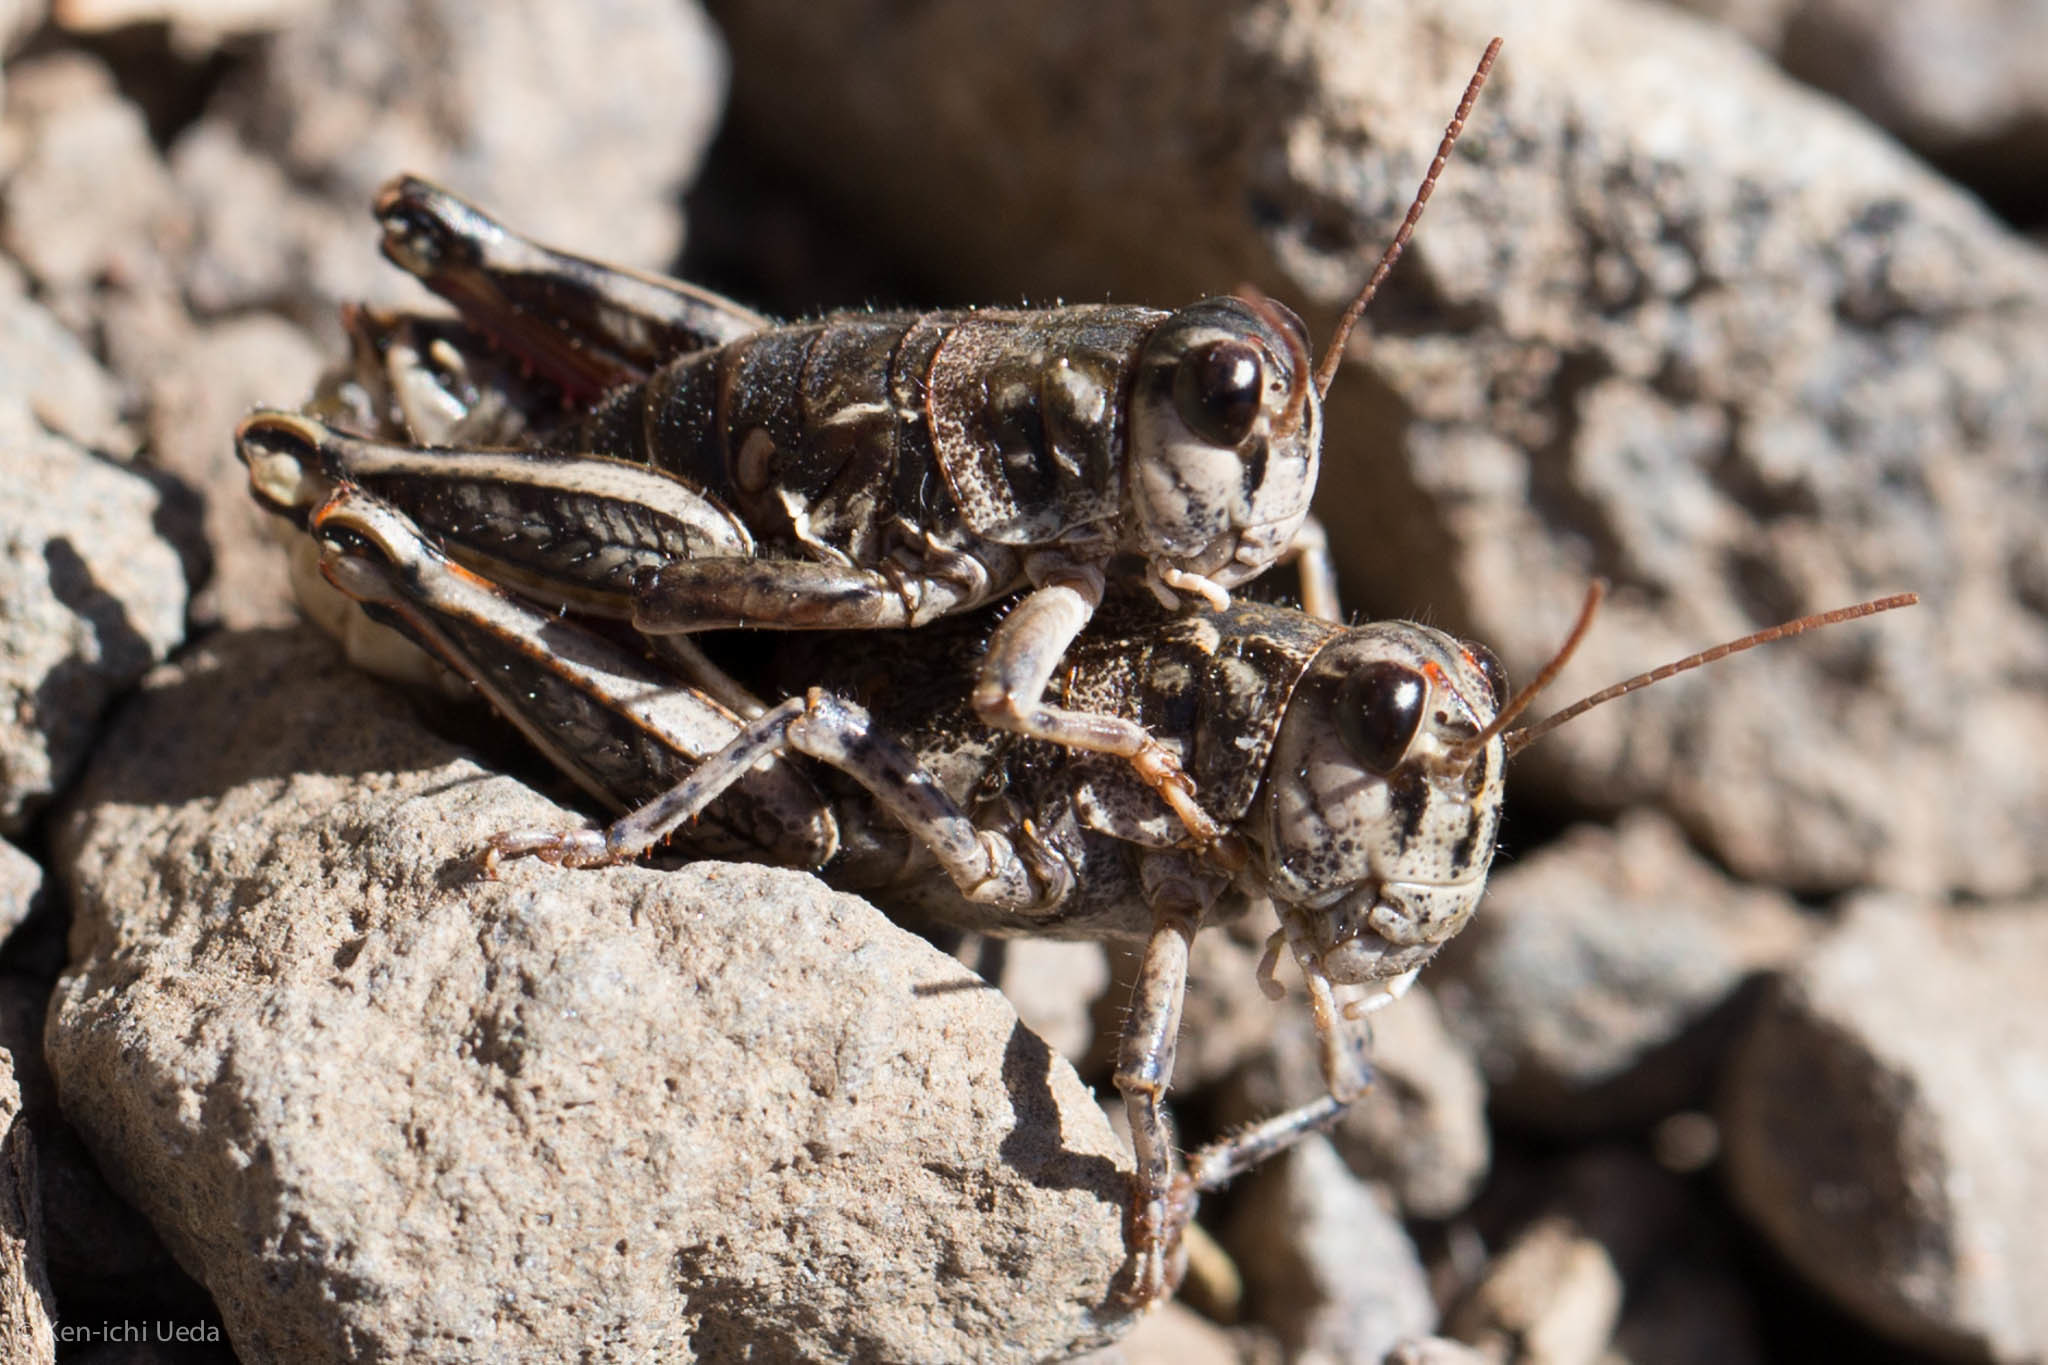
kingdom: Animalia
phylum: Arthropoda
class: Insecta
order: Orthoptera
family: Acrididae
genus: Bradynotes
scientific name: Bradynotes obesa
